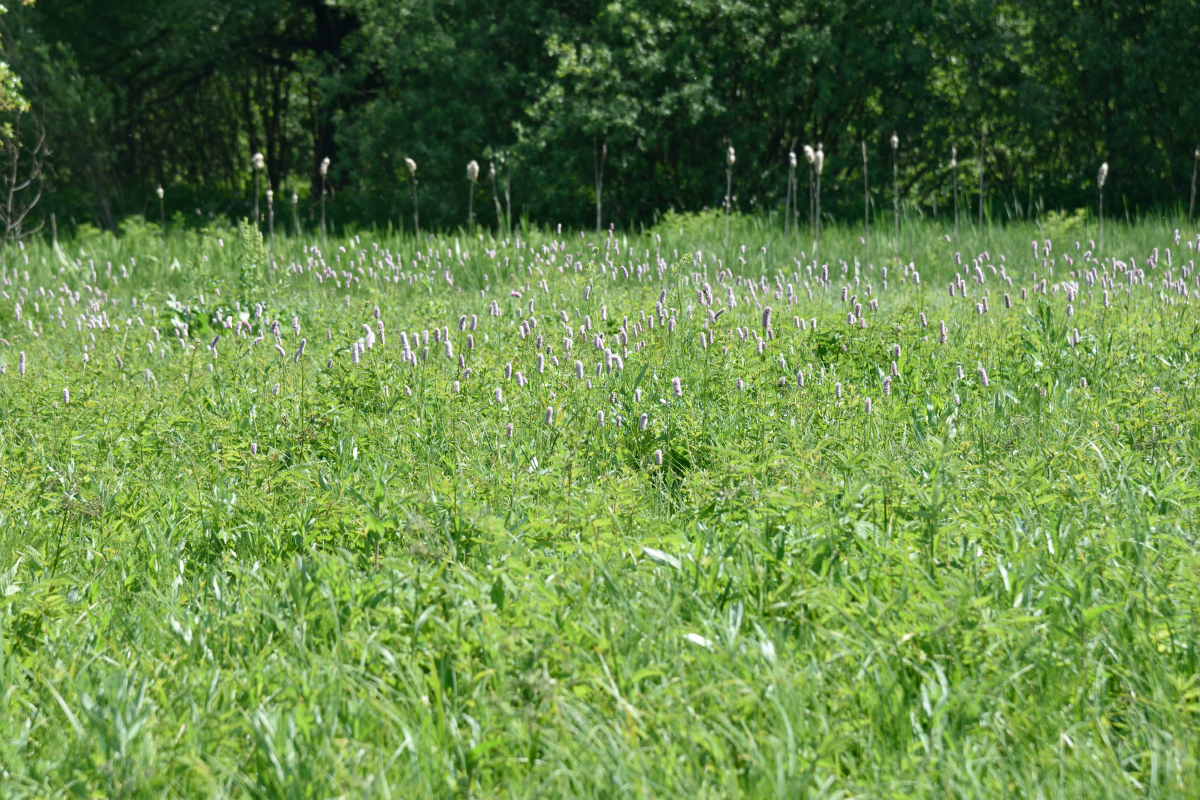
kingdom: Plantae
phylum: Tracheophyta
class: Magnoliopsida
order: Caryophyllales
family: Polygonaceae
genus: Bistorta
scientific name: Bistorta officinalis
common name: Common bistort
